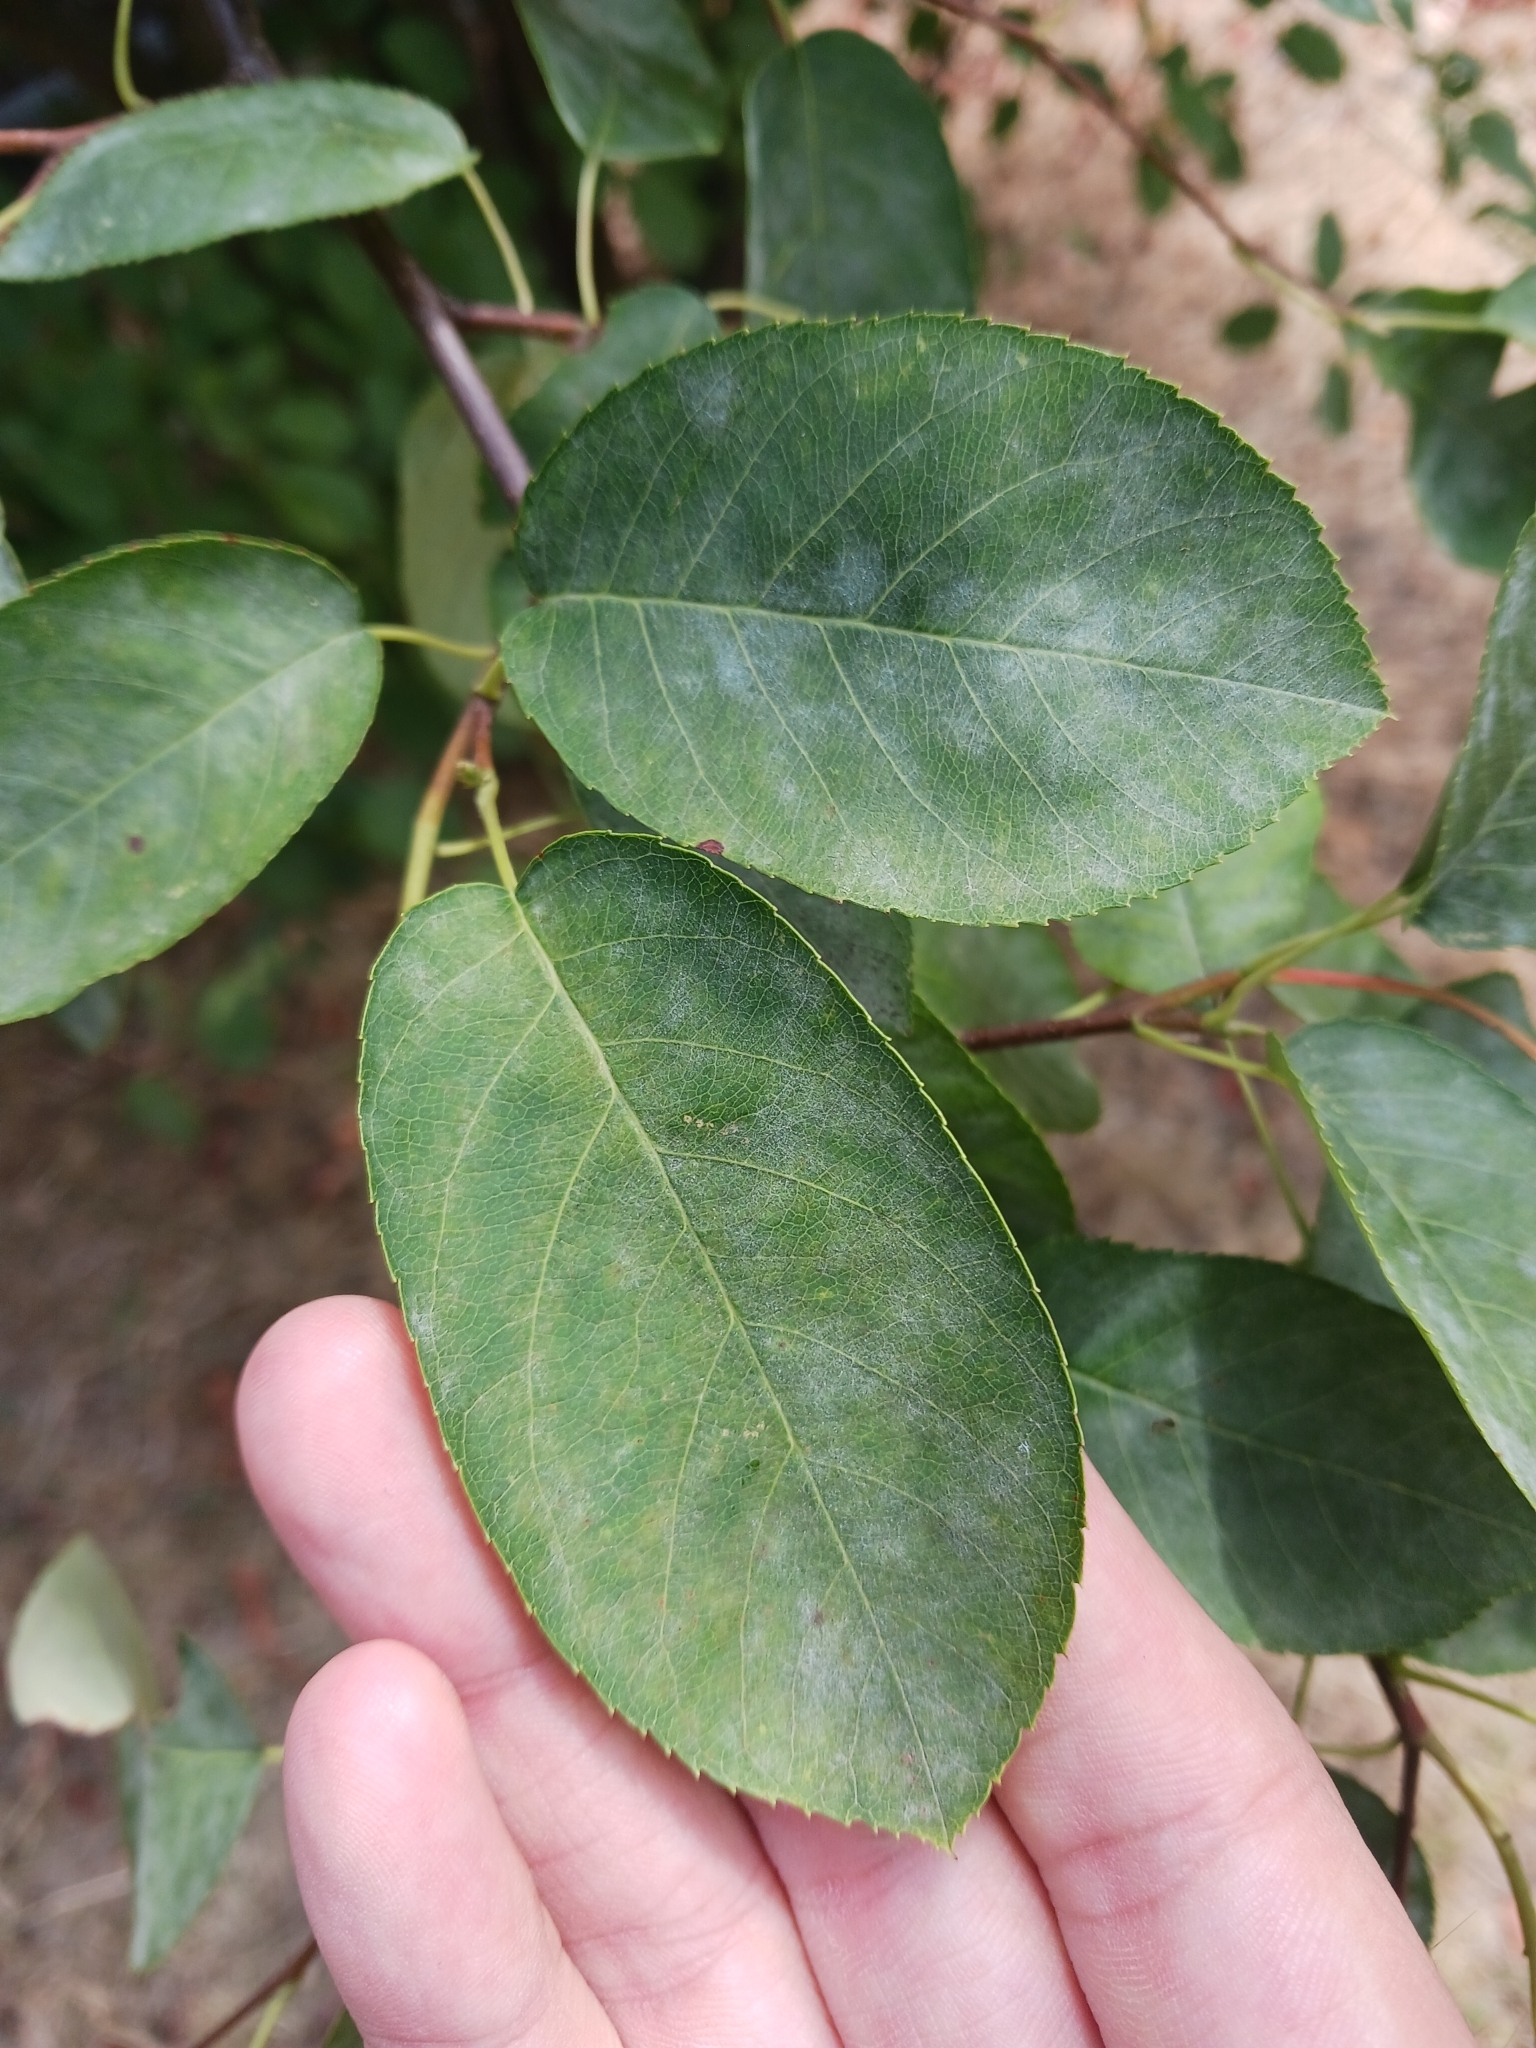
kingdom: Fungi
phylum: Ascomycota
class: Leotiomycetes
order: Helotiales
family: Erysiphaceae
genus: Podosphaera
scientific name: Podosphaera amelanchieris
